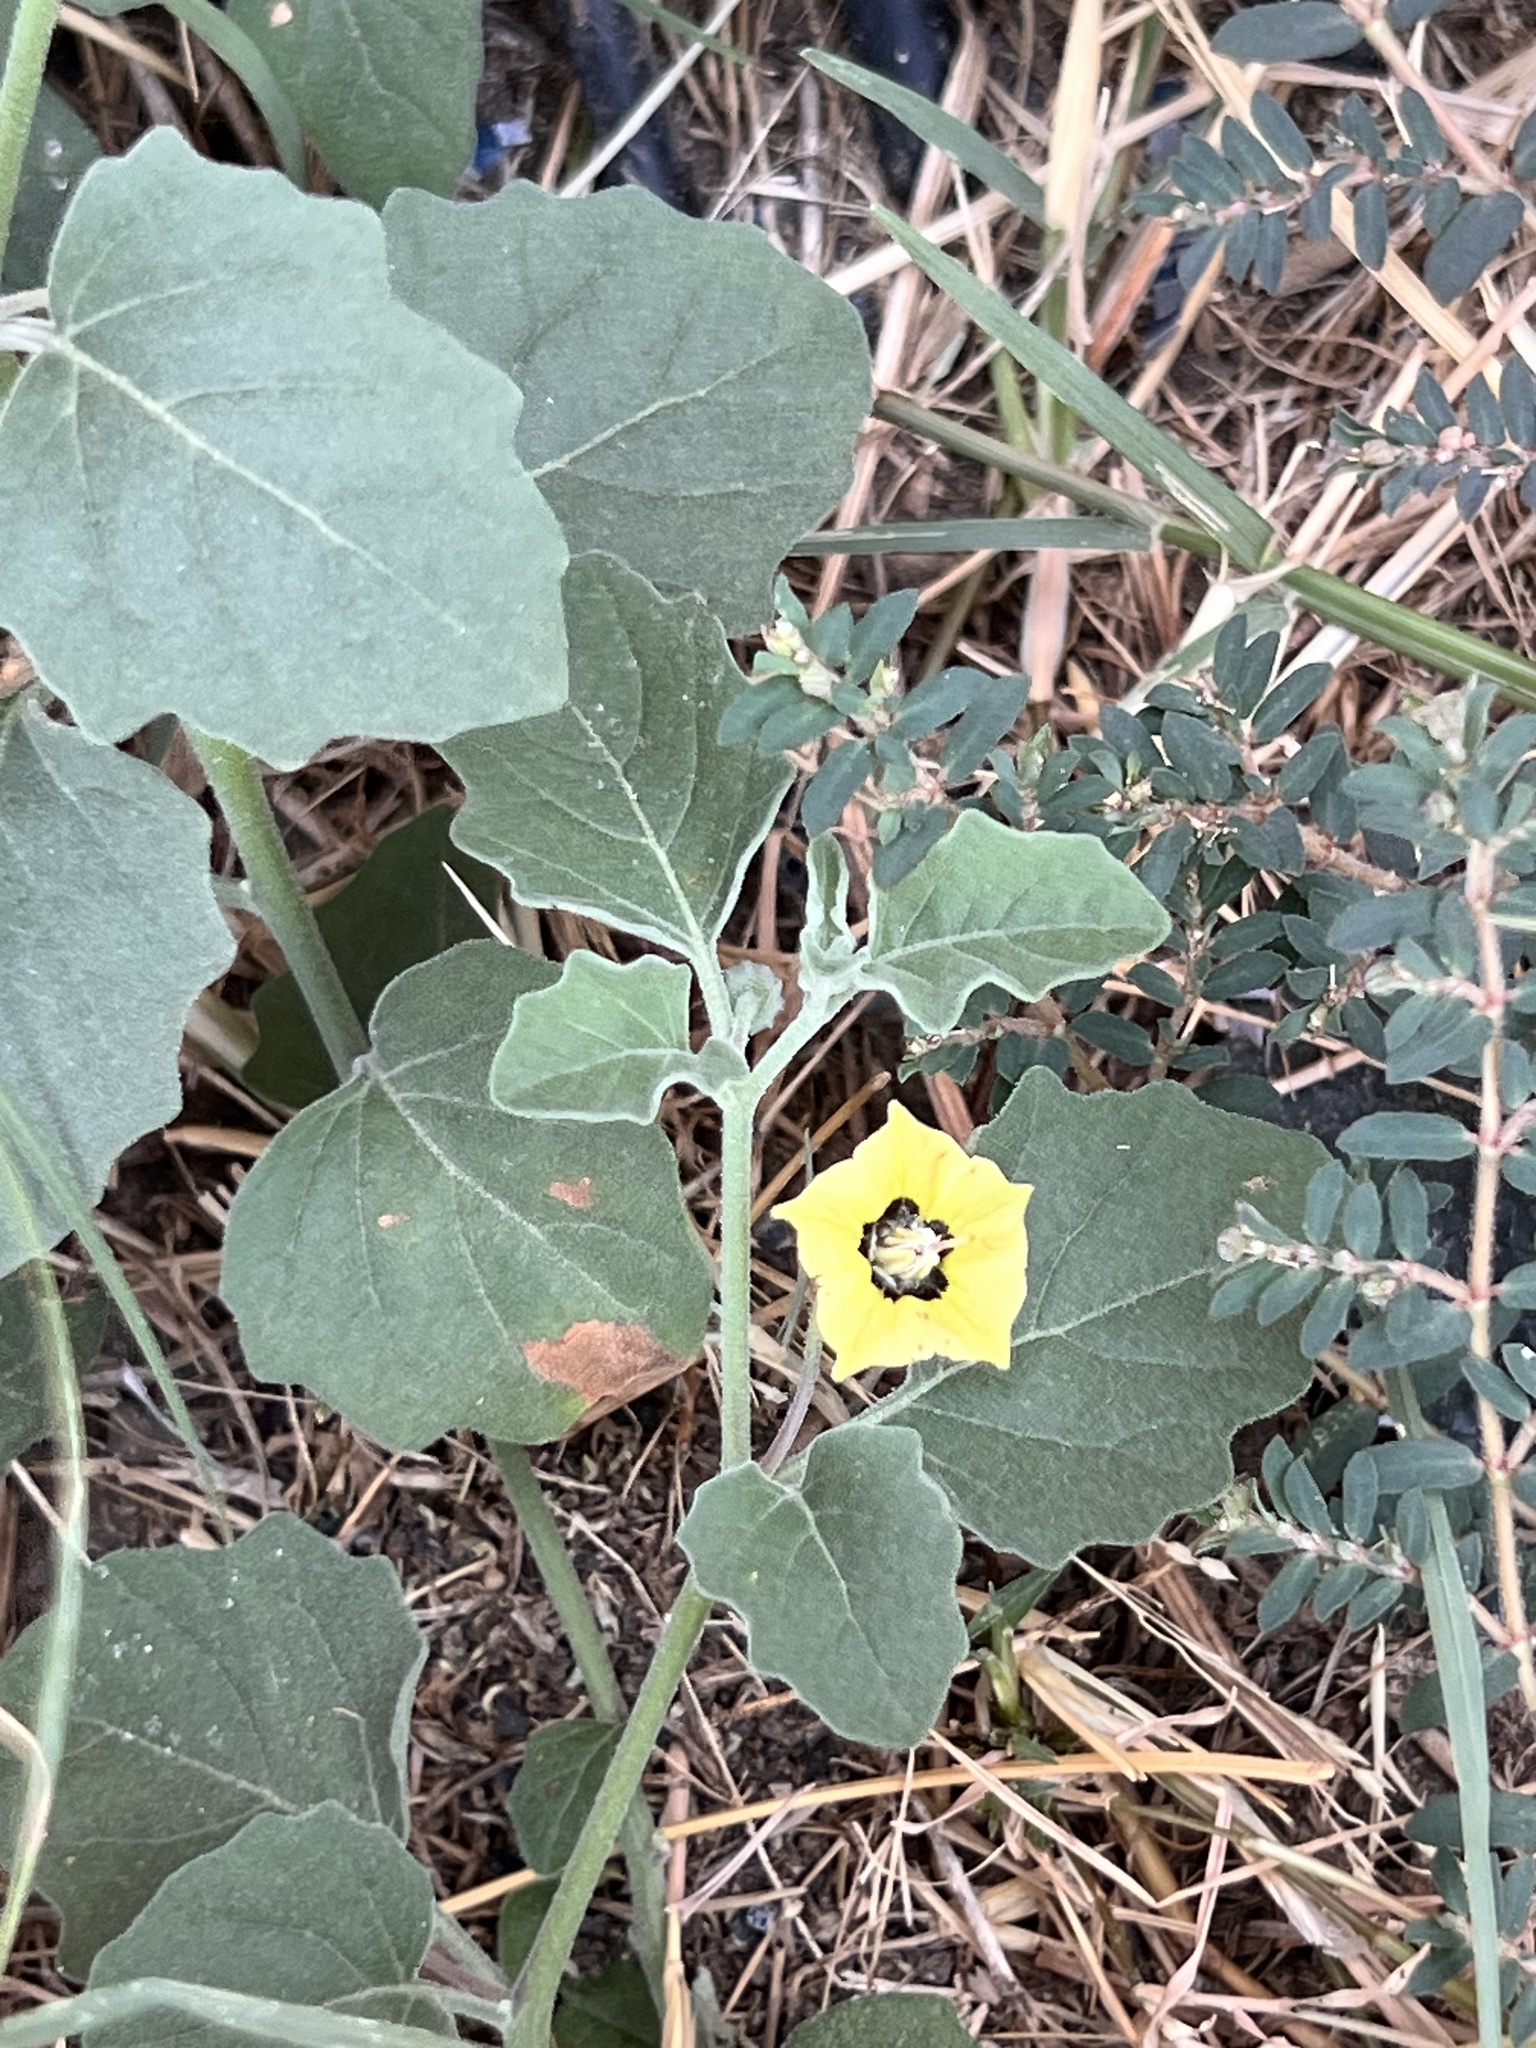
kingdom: Plantae
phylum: Tracheophyta
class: Magnoliopsida
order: Solanales
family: Solanaceae
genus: Physalis
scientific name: Physalis cinerascens
